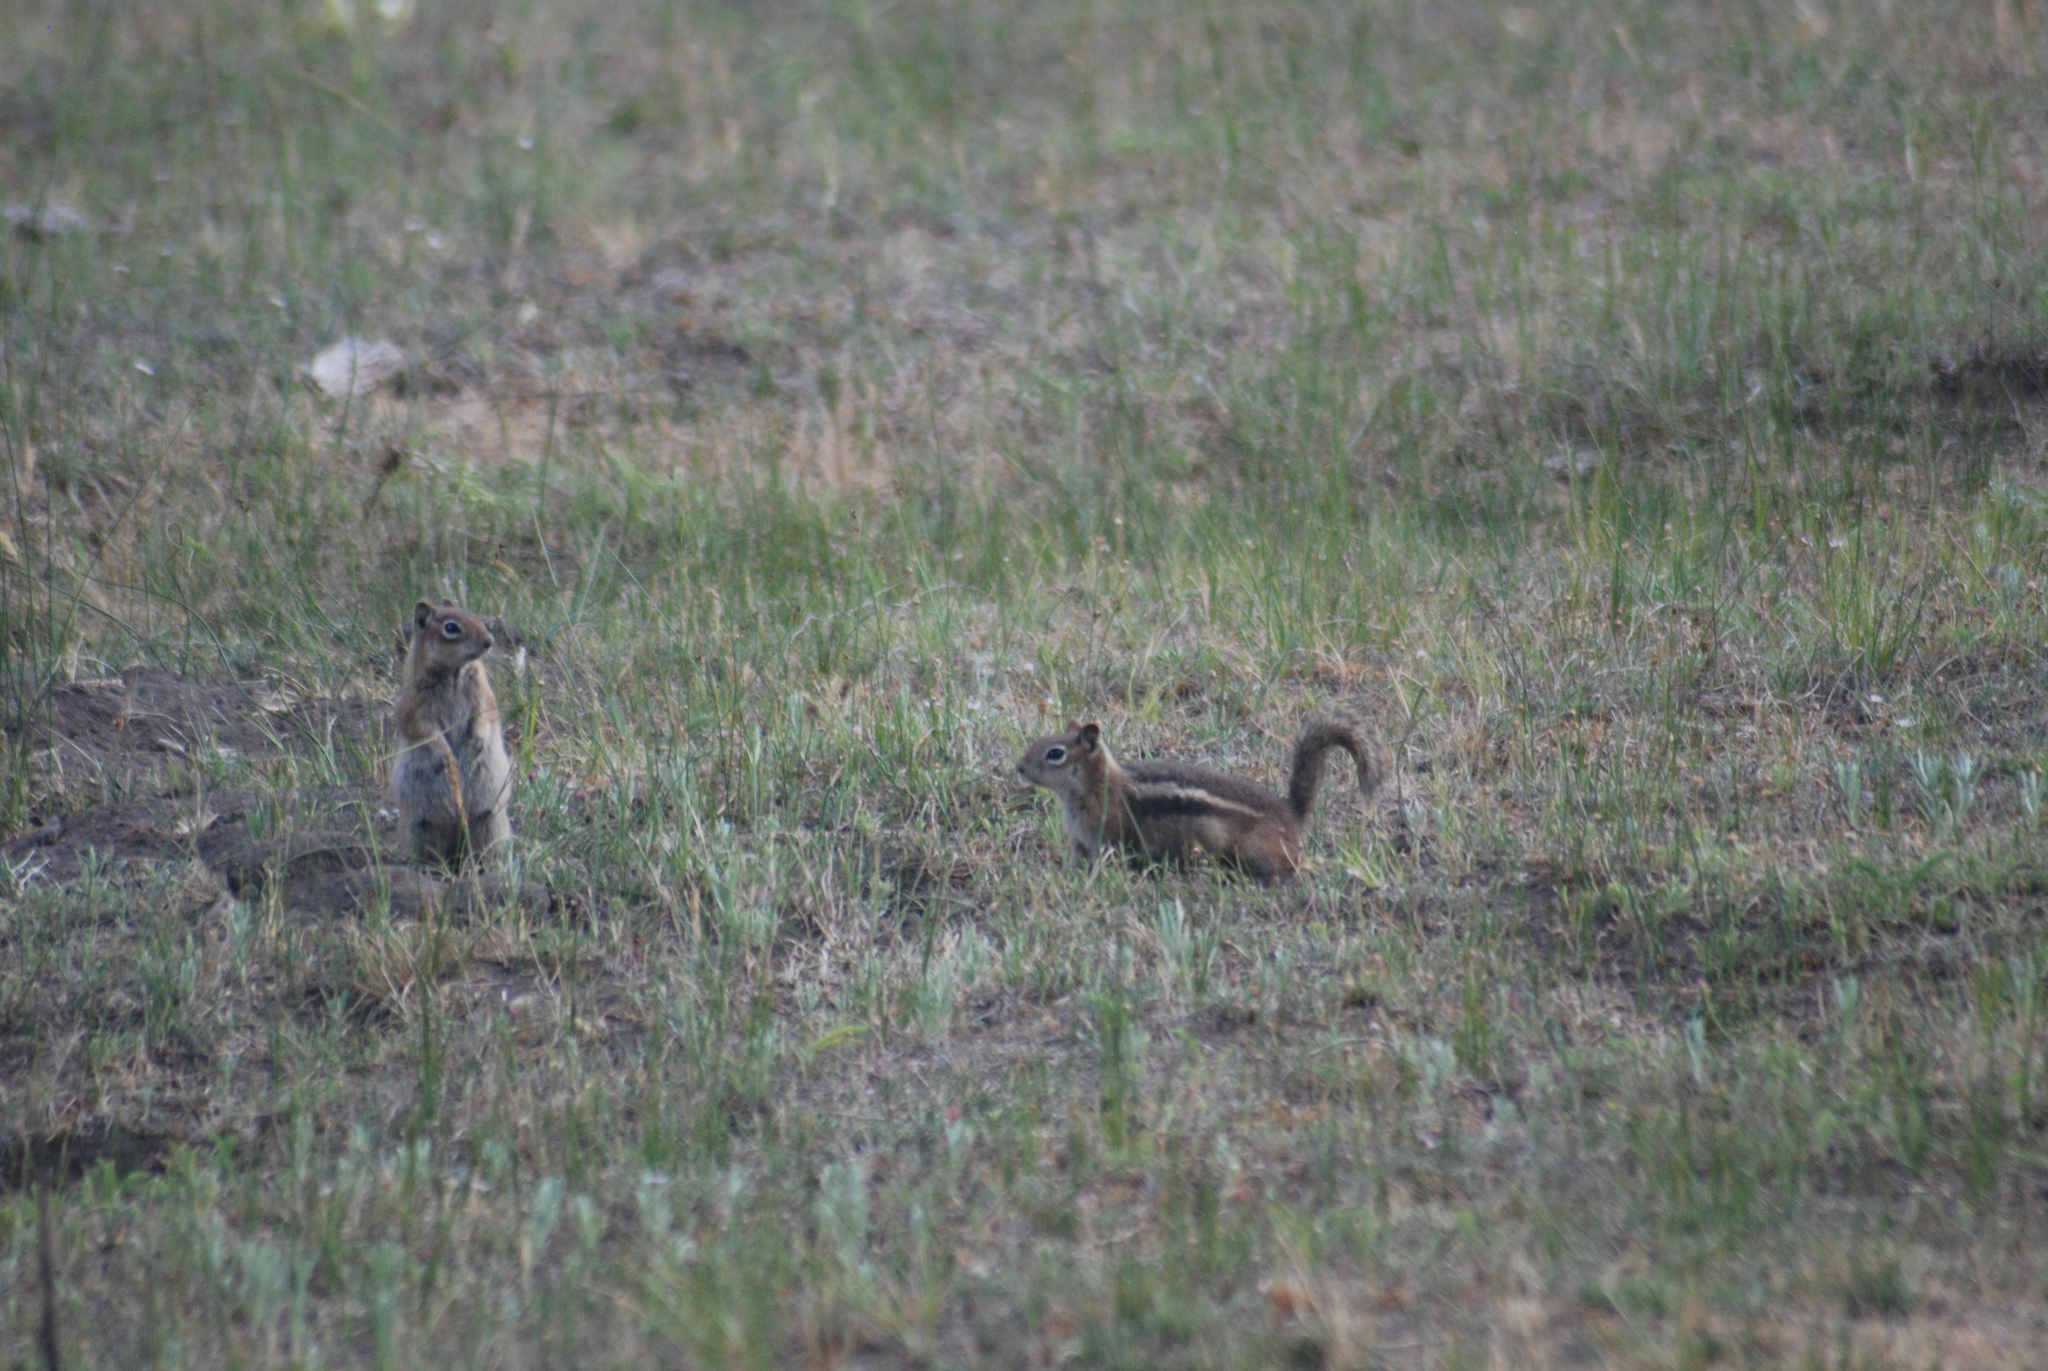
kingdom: Animalia
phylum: Chordata
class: Mammalia
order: Rodentia
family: Sciuridae
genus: Callospermophilus
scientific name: Callospermophilus lateralis
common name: Golden-mantled ground squirrel
